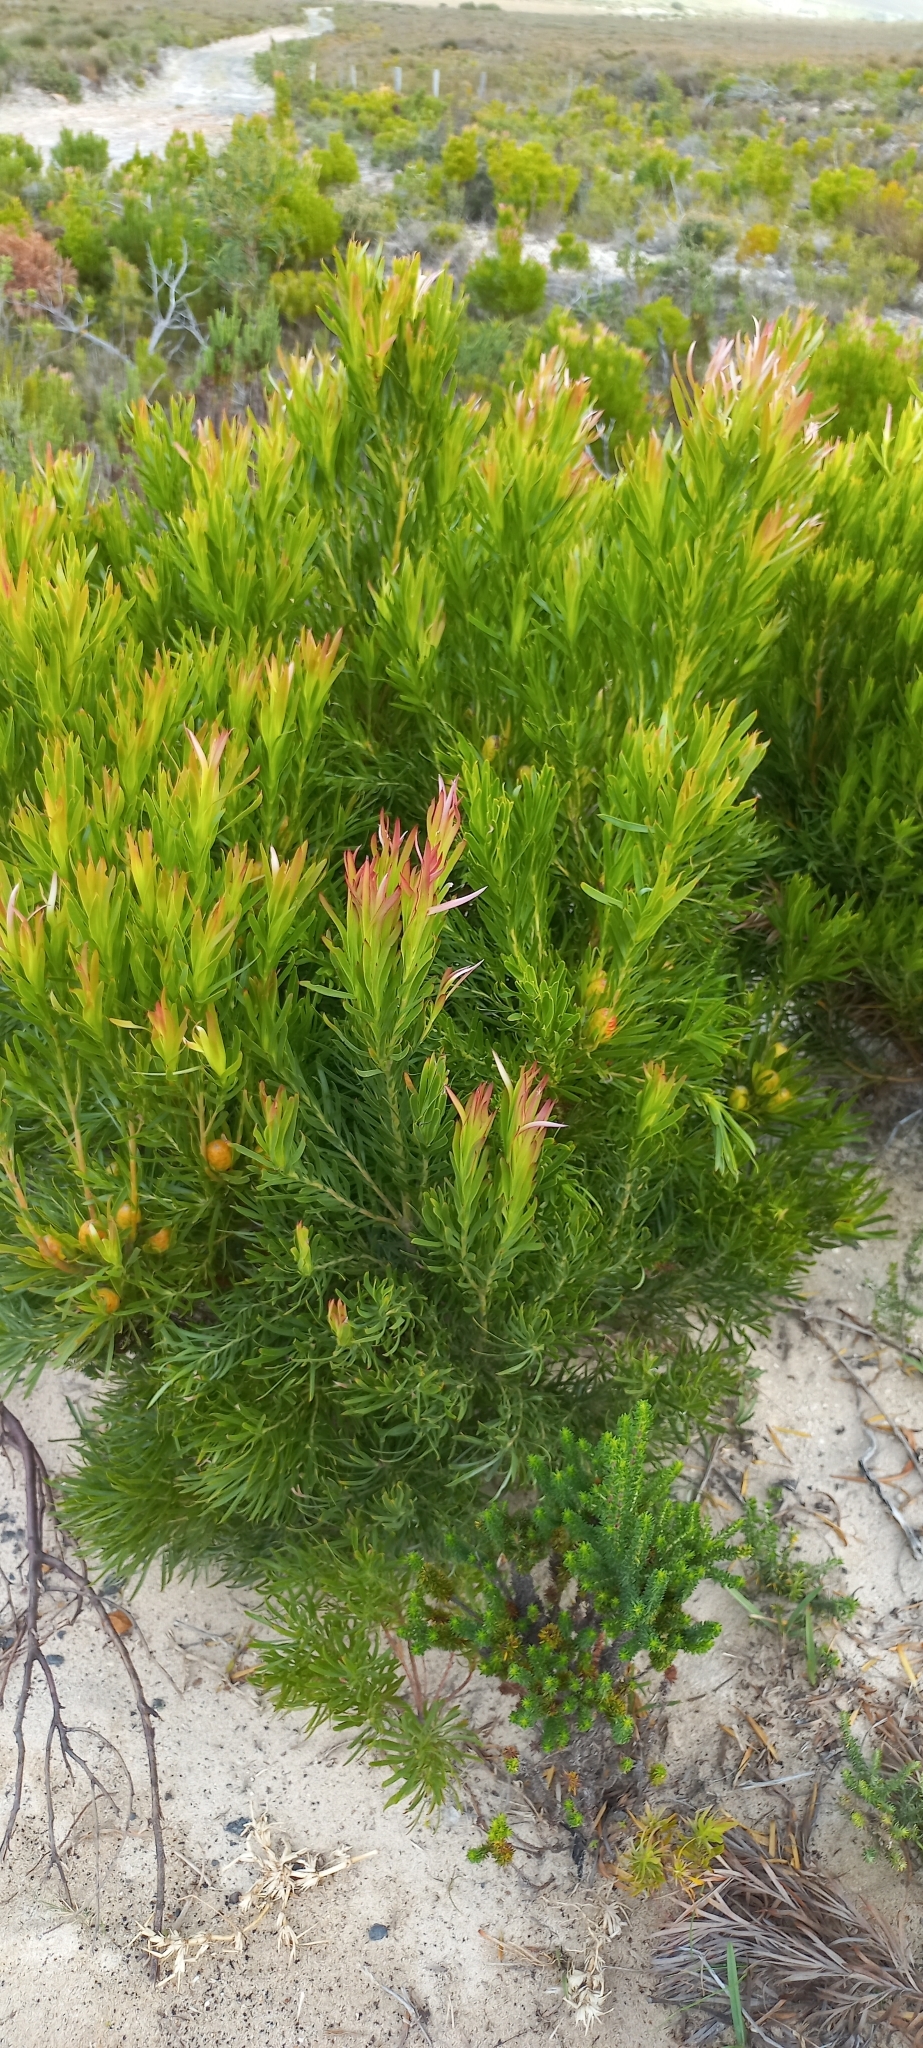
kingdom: Plantae
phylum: Tracheophyta
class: Magnoliopsida
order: Proteales
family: Proteaceae
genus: Leucadendron
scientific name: Leucadendron coniferum
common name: Dune conebush
